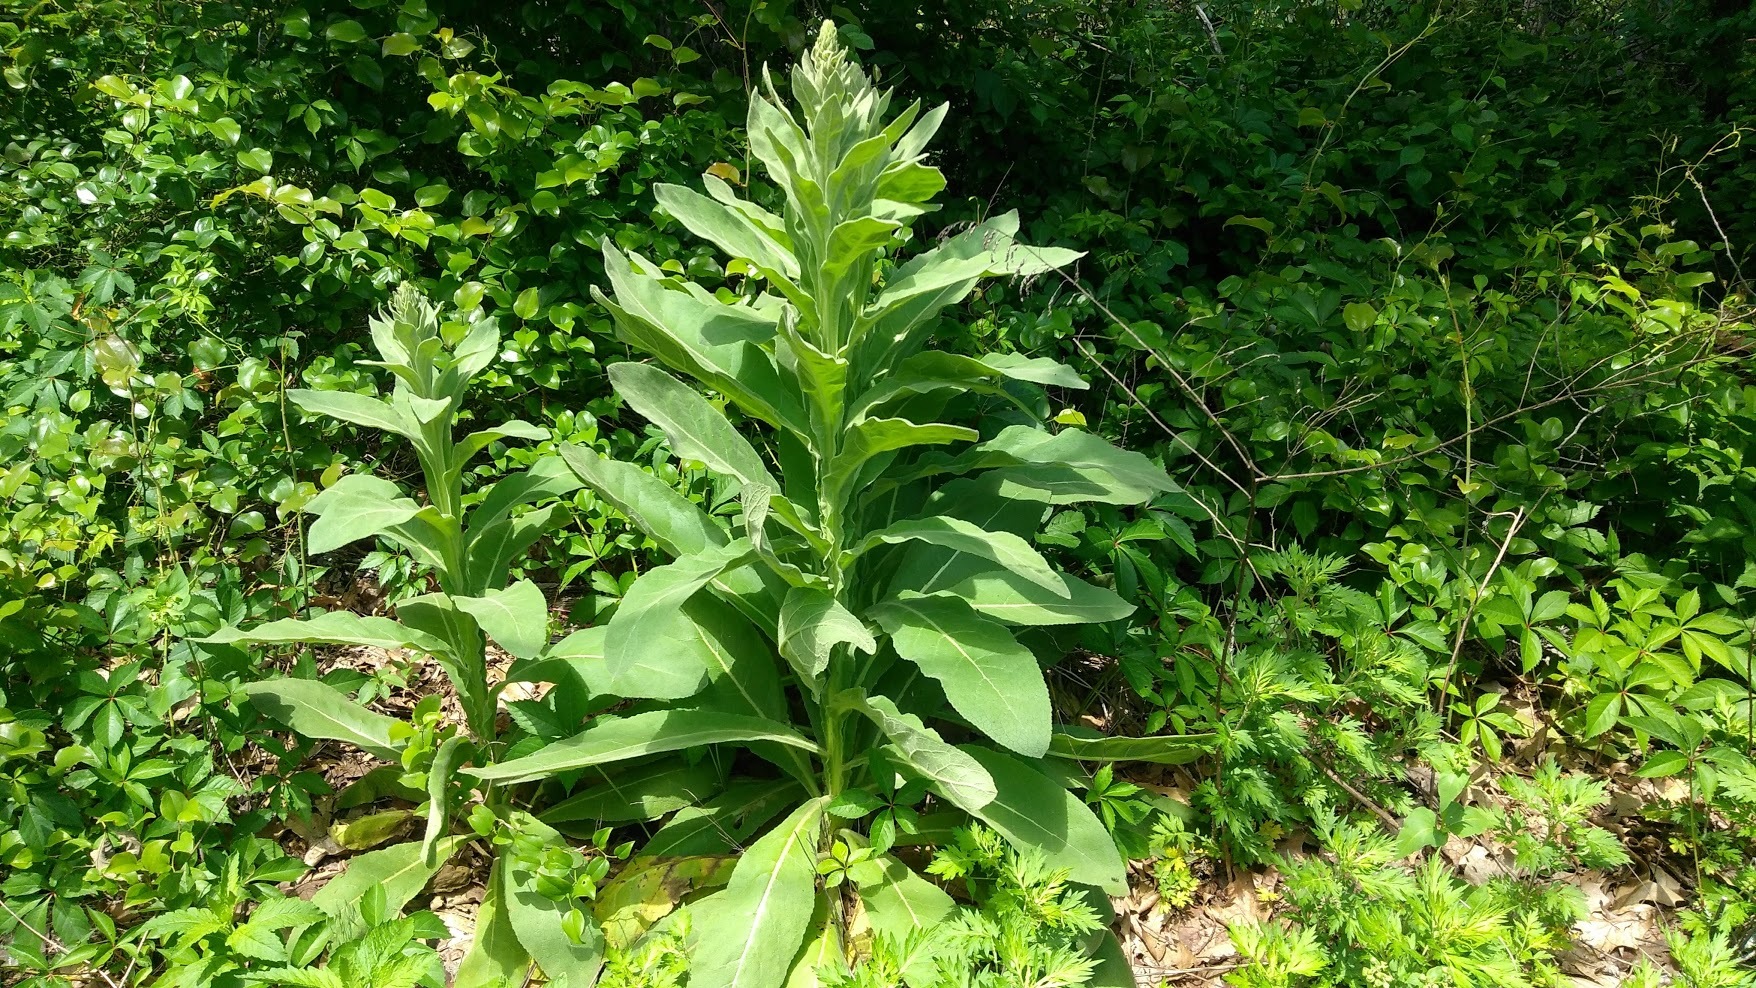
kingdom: Plantae
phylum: Tracheophyta
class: Magnoliopsida
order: Lamiales
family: Scrophulariaceae
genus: Verbascum
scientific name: Verbascum thapsus
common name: Common mullein
